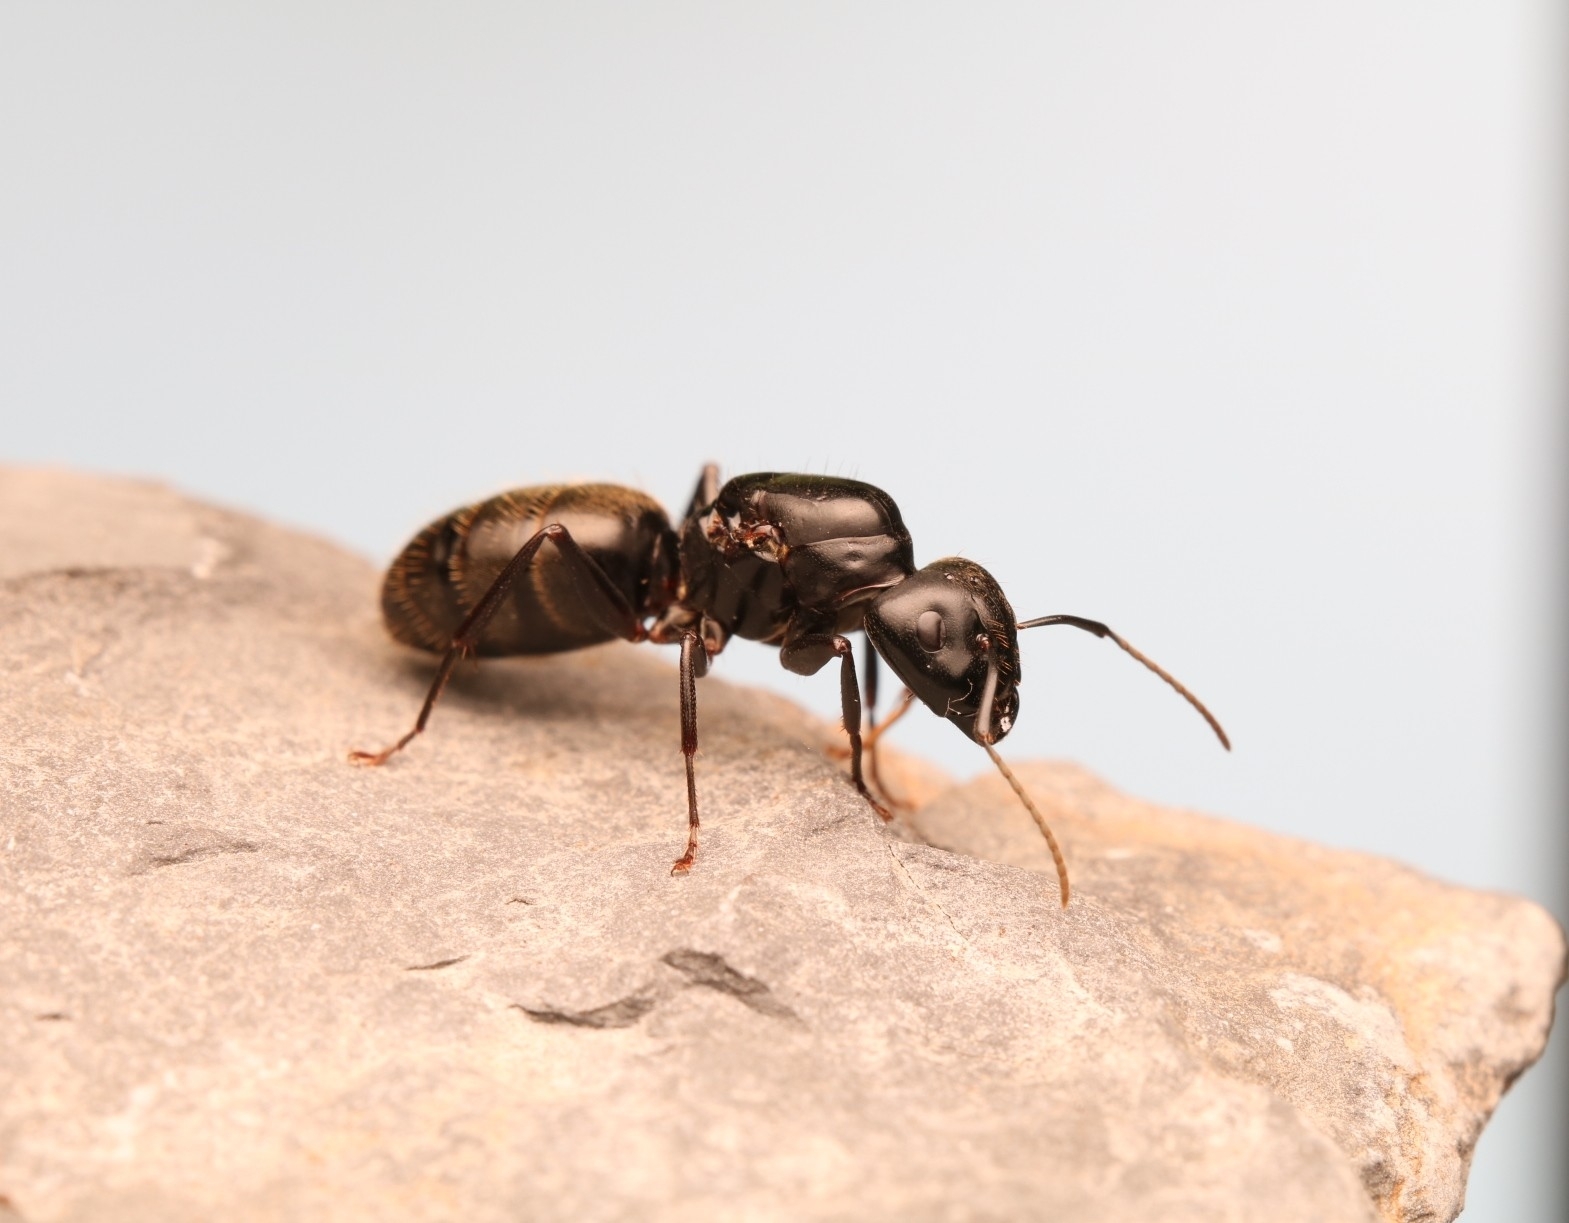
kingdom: Animalia
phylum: Arthropoda
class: Insecta
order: Hymenoptera
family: Formicidae
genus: Camponotus
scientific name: Camponotus pennsylvanicus
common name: Black carpenter ant
